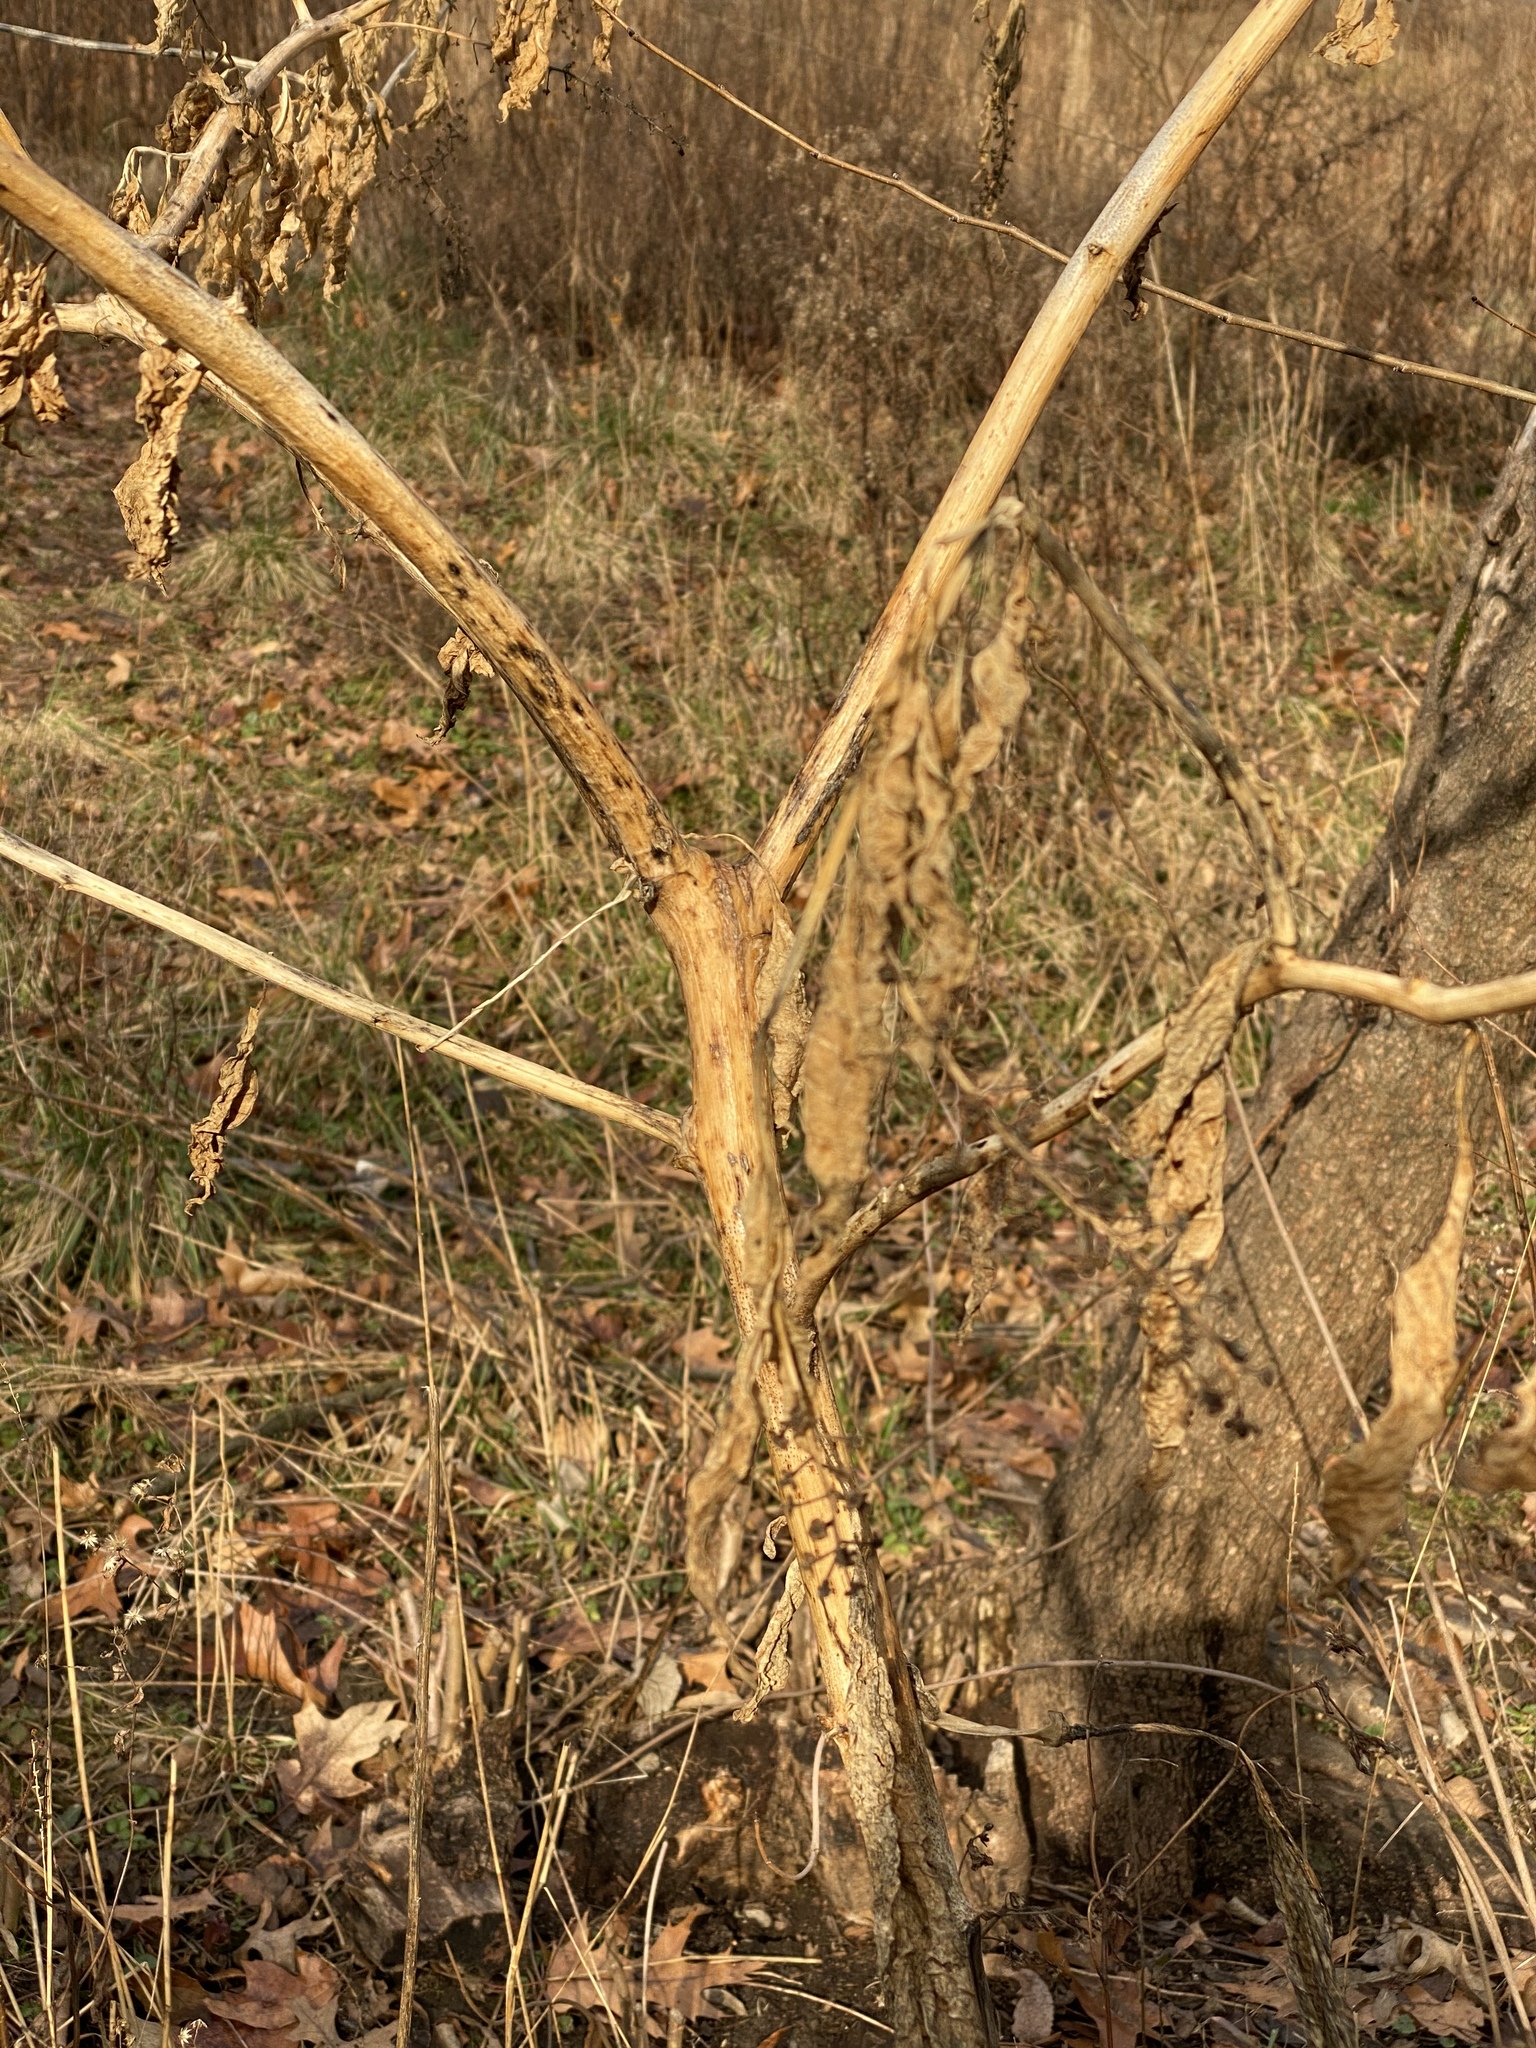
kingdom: Plantae
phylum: Tracheophyta
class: Magnoliopsida
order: Caryophyllales
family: Phytolaccaceae
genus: Phytolacca
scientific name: Phytolacca americana
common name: American pokeweed
